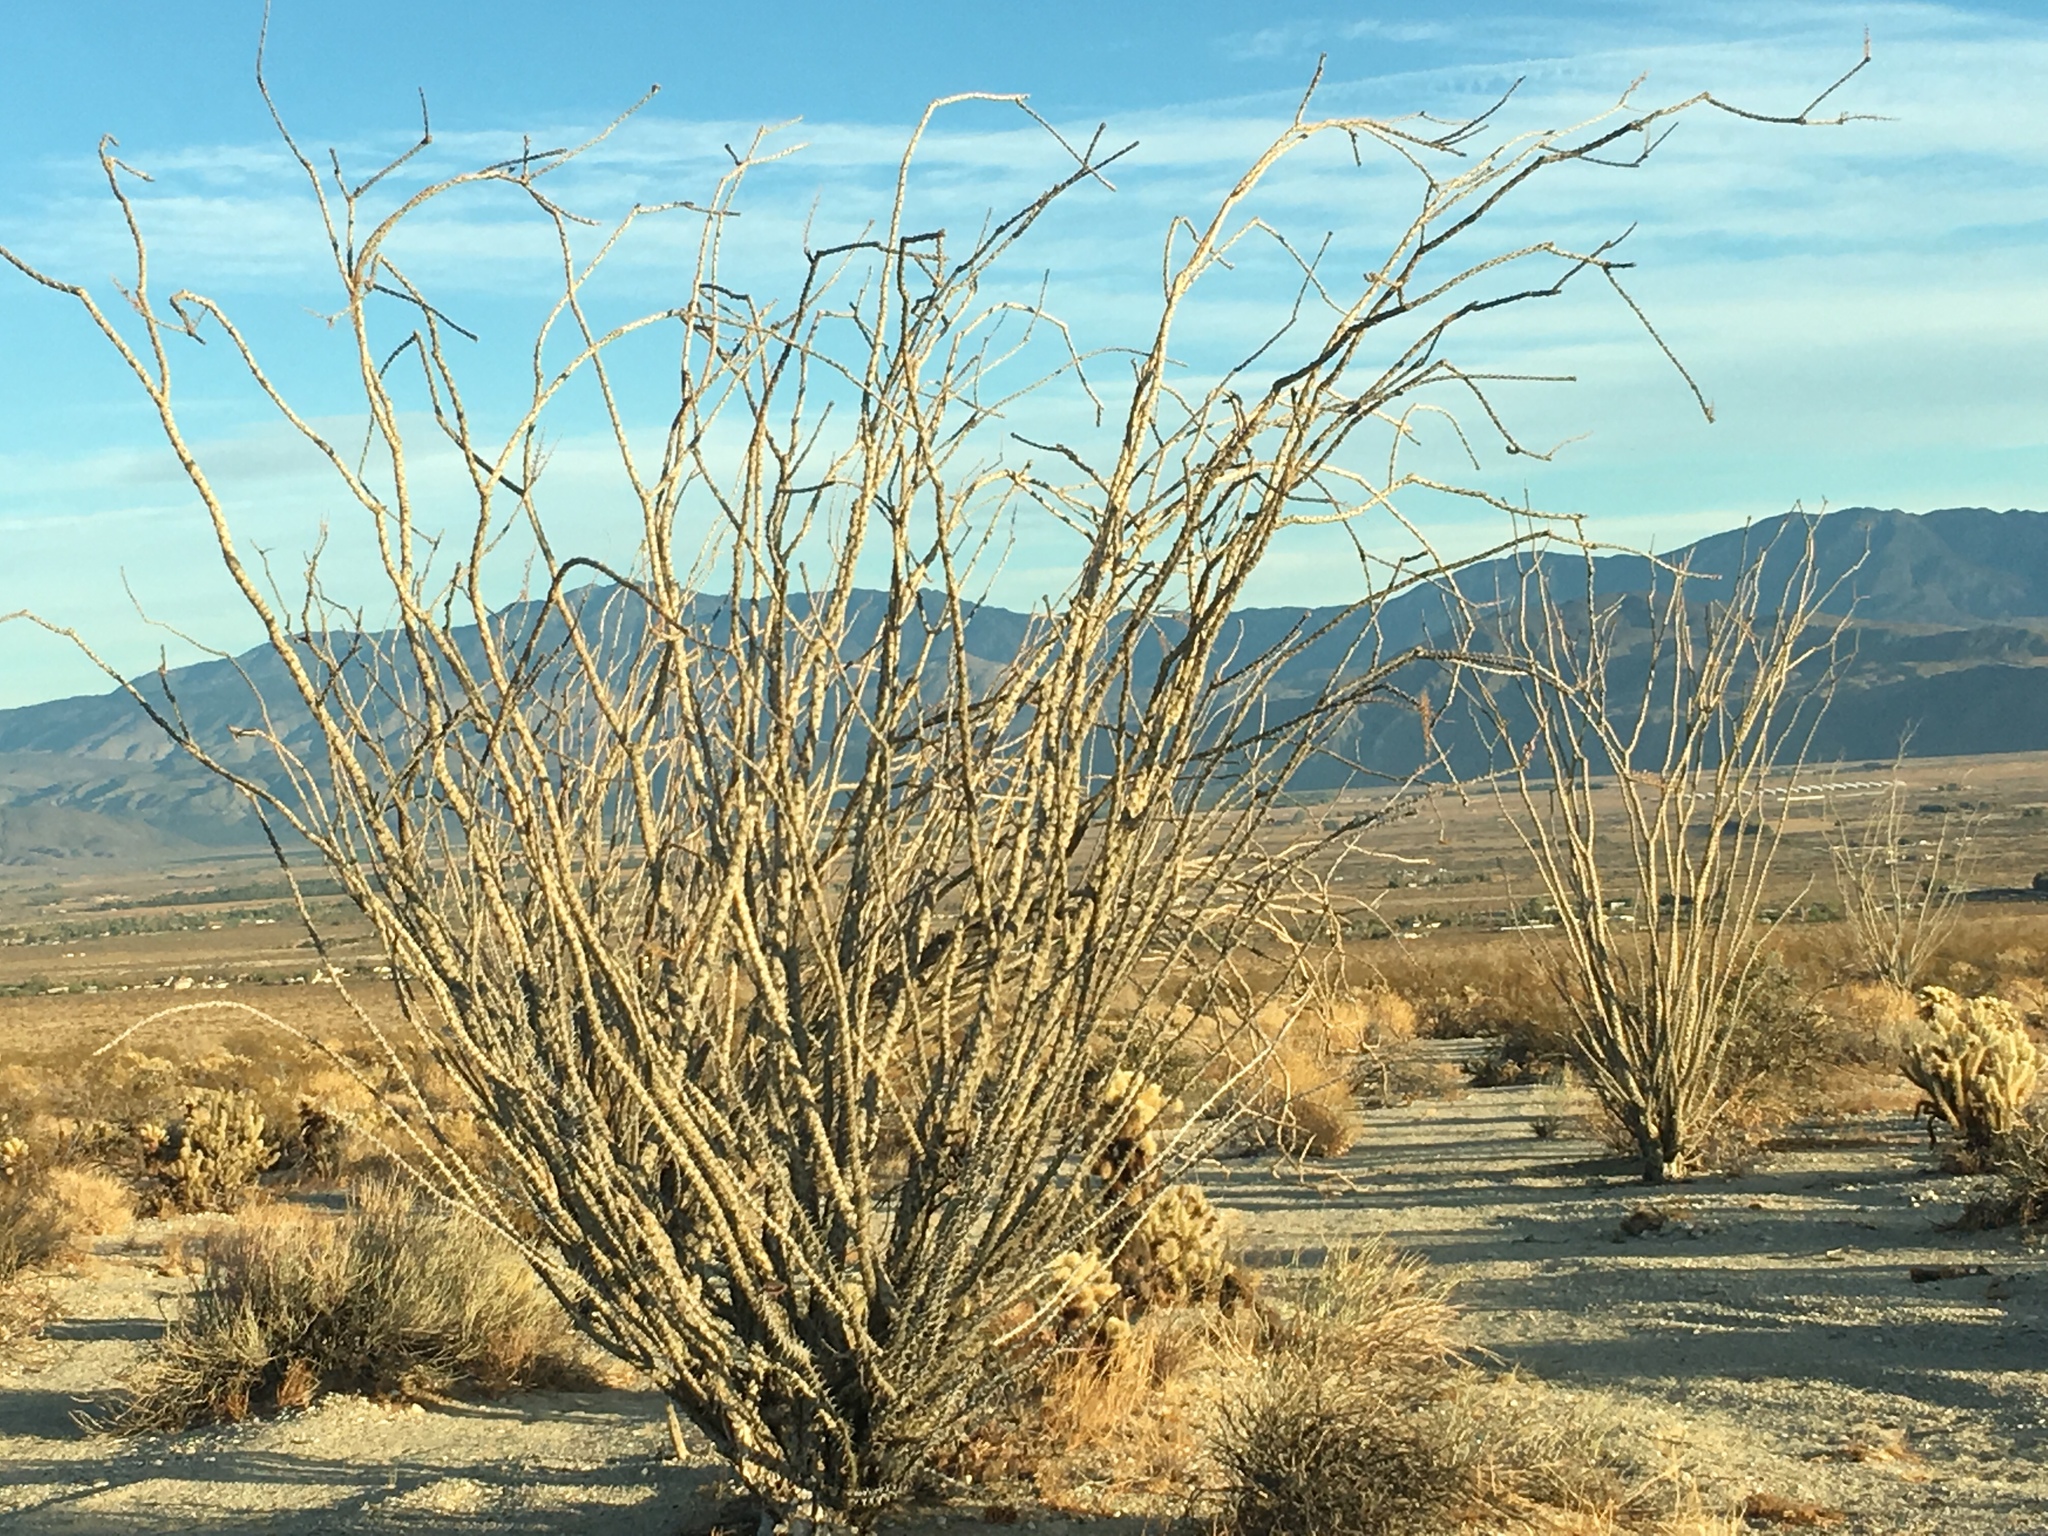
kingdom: Plantae
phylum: Tracheophyta
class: Magnoliopsida
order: Ericales
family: Fouquieriaceae
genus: Fouquieria
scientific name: Fouquieria splendens
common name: Vine-cactus
